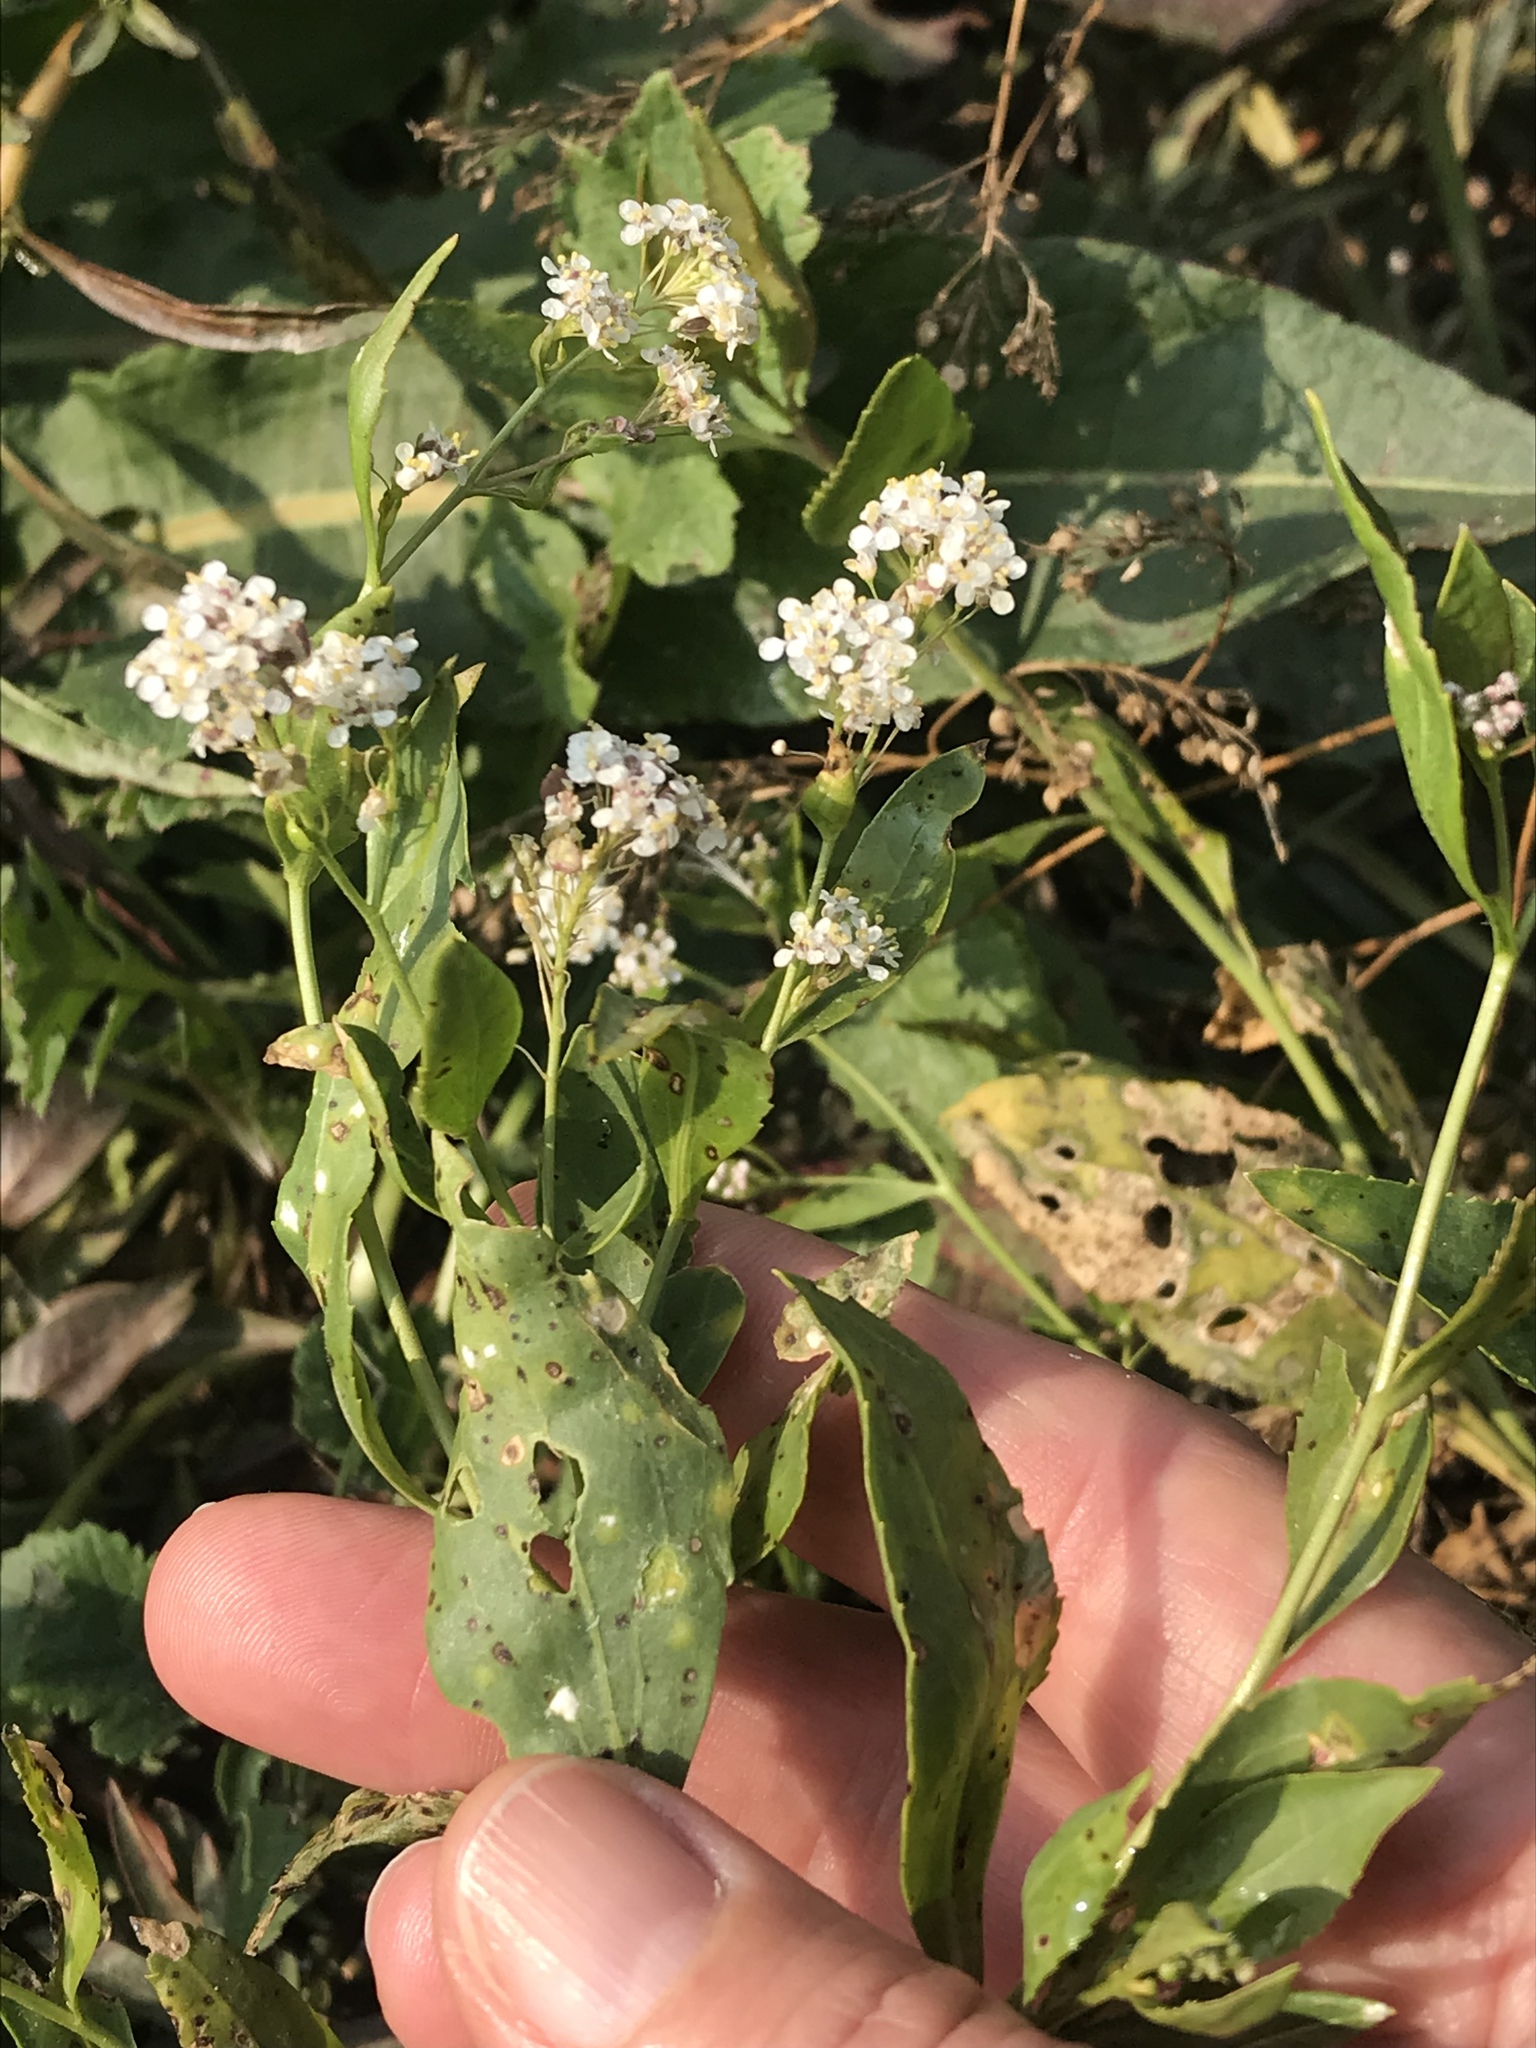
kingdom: Plantae
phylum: Tracheophyta
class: Magnoliopsida
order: Brassicales
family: Brassicaceae
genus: Lepidium
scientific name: Lepidium latifolium
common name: Dittander
